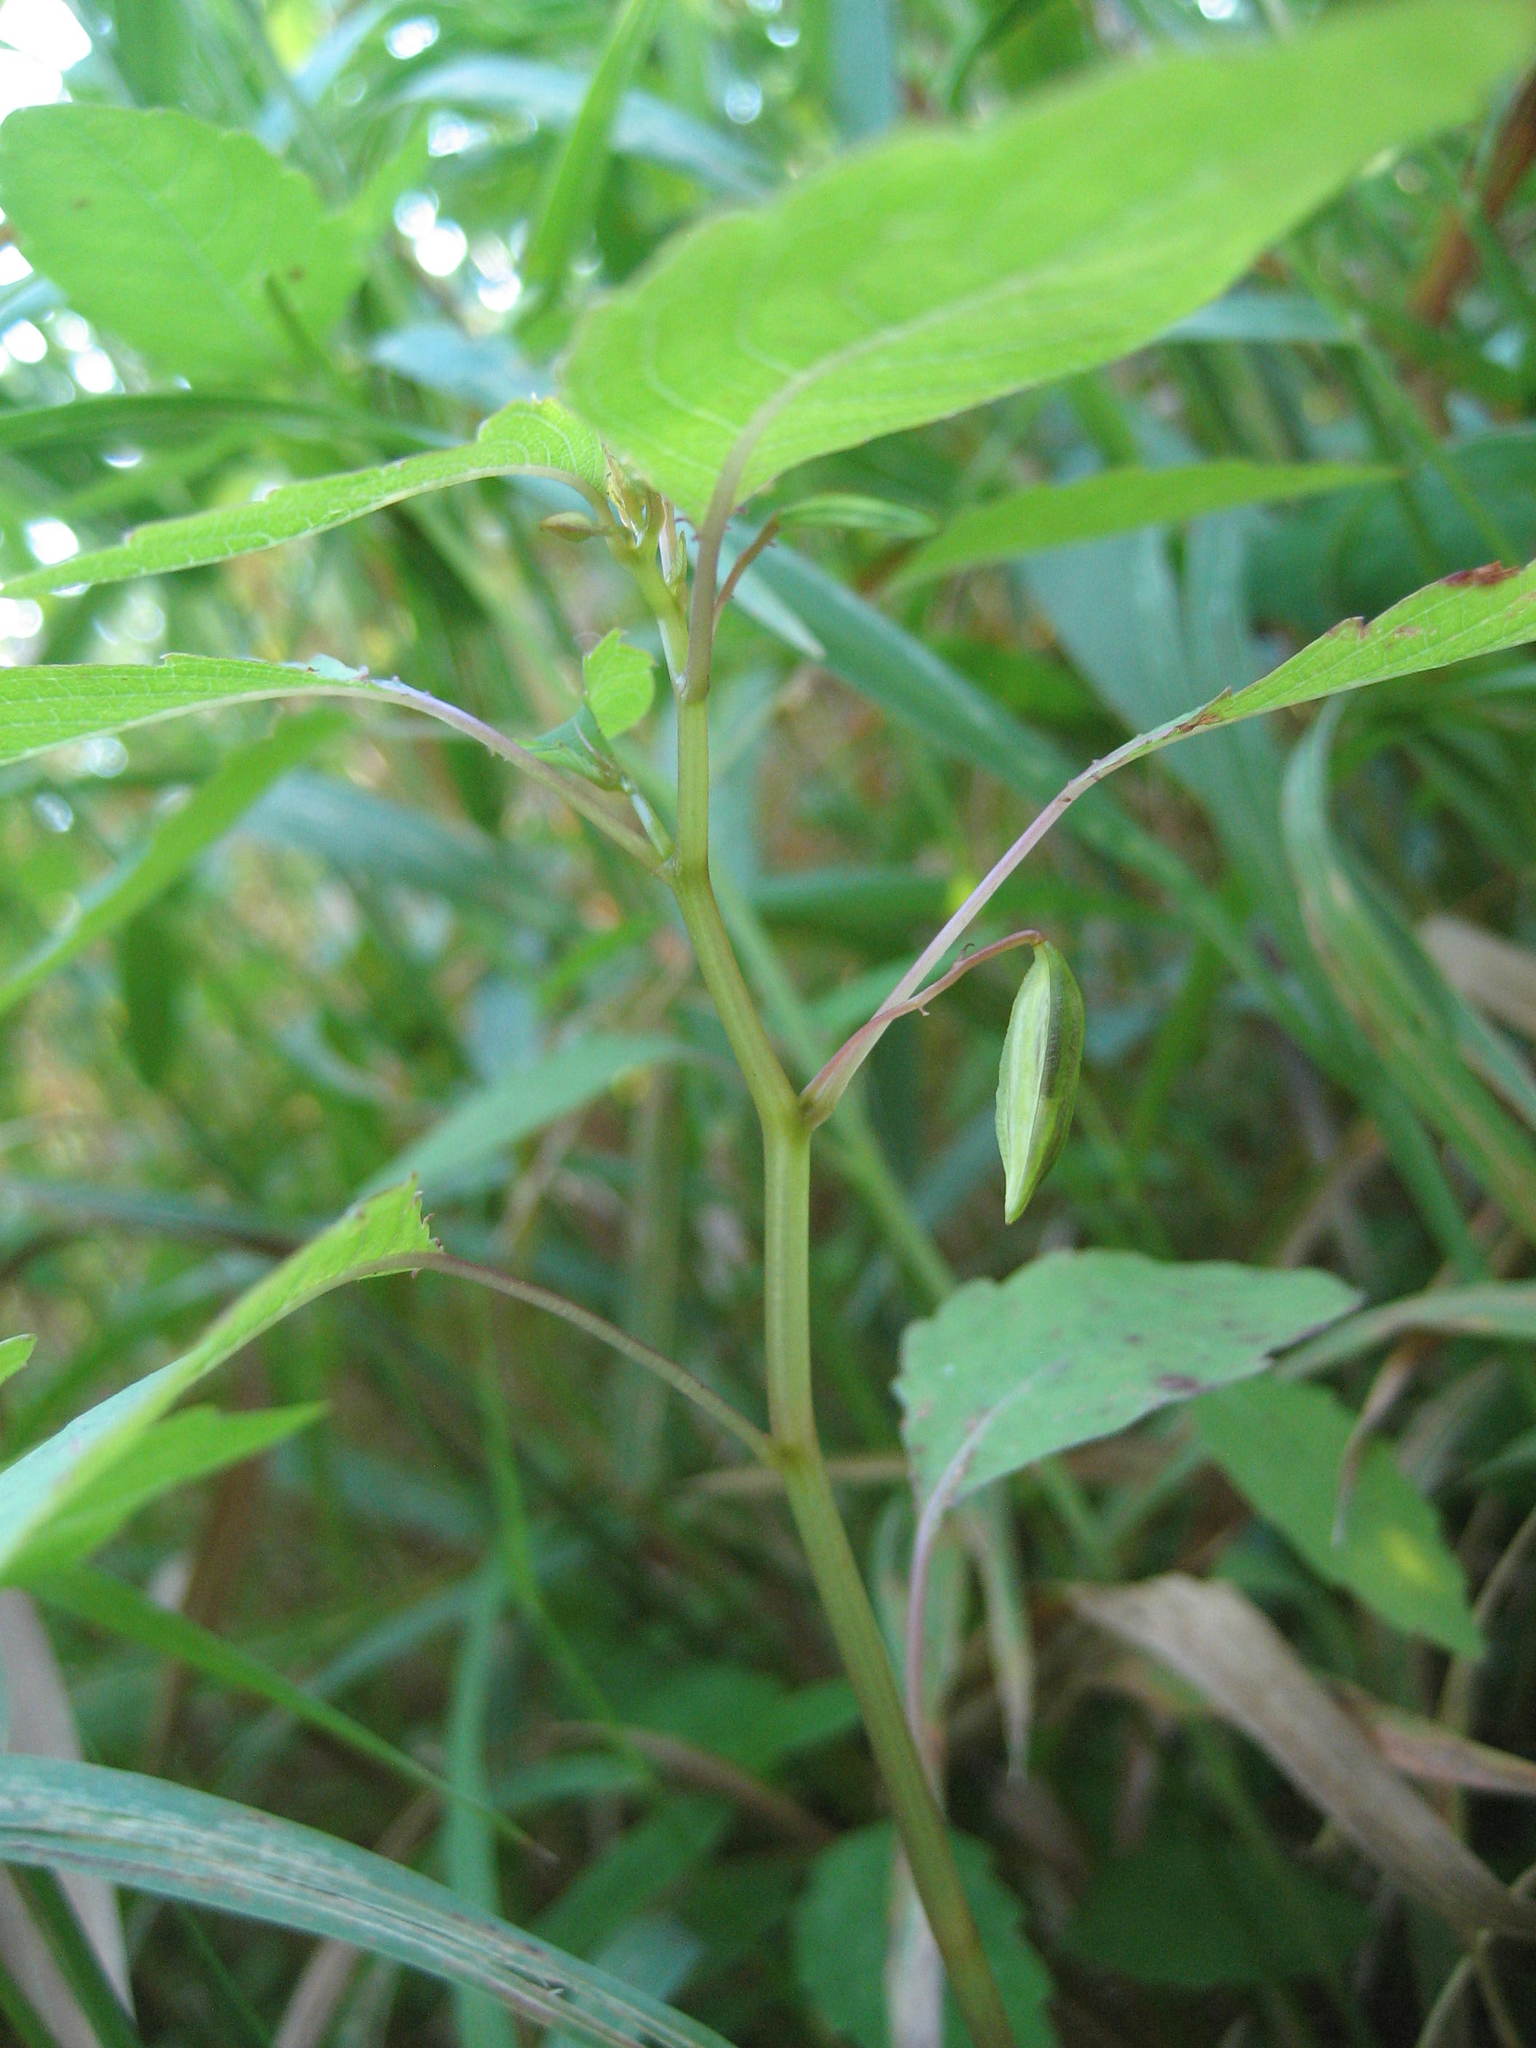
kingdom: Plantae
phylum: Tracheophyta
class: Magnoliopsida
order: Ericales
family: Balsaminaceae
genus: Impatiens
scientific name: Impatiens capensis
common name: Orange balsam
